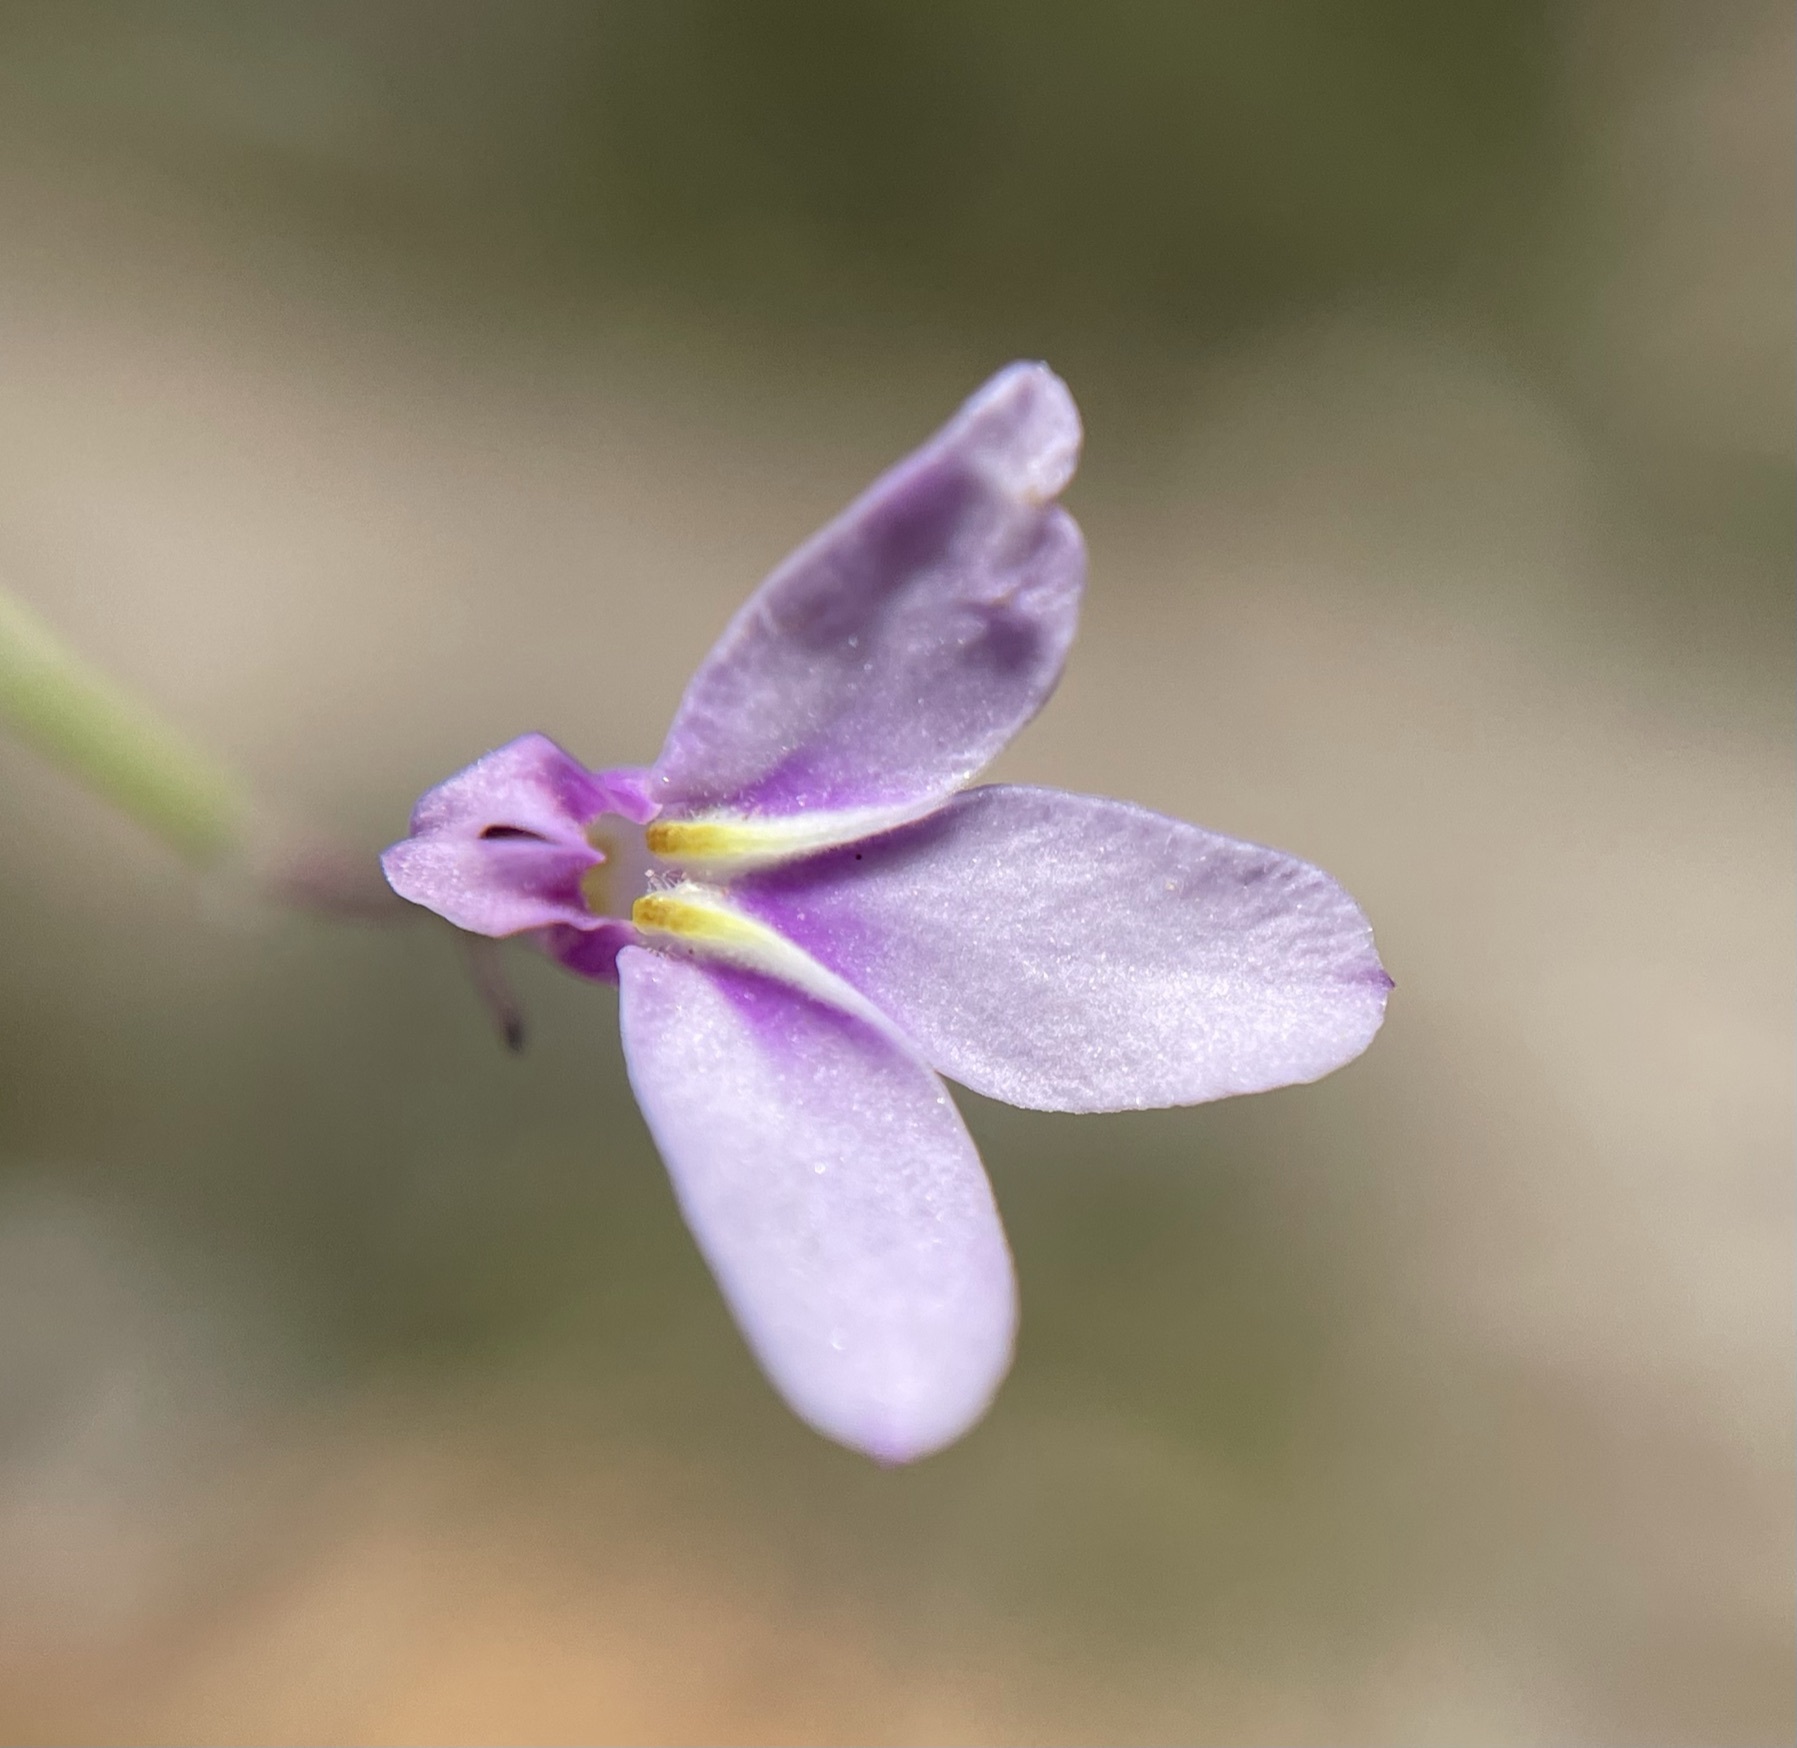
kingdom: Plantae
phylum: Tracheophyta
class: Magnoliopsida
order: Asterales
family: Campanulaceae
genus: Lobelia
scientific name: Lobelia patula
